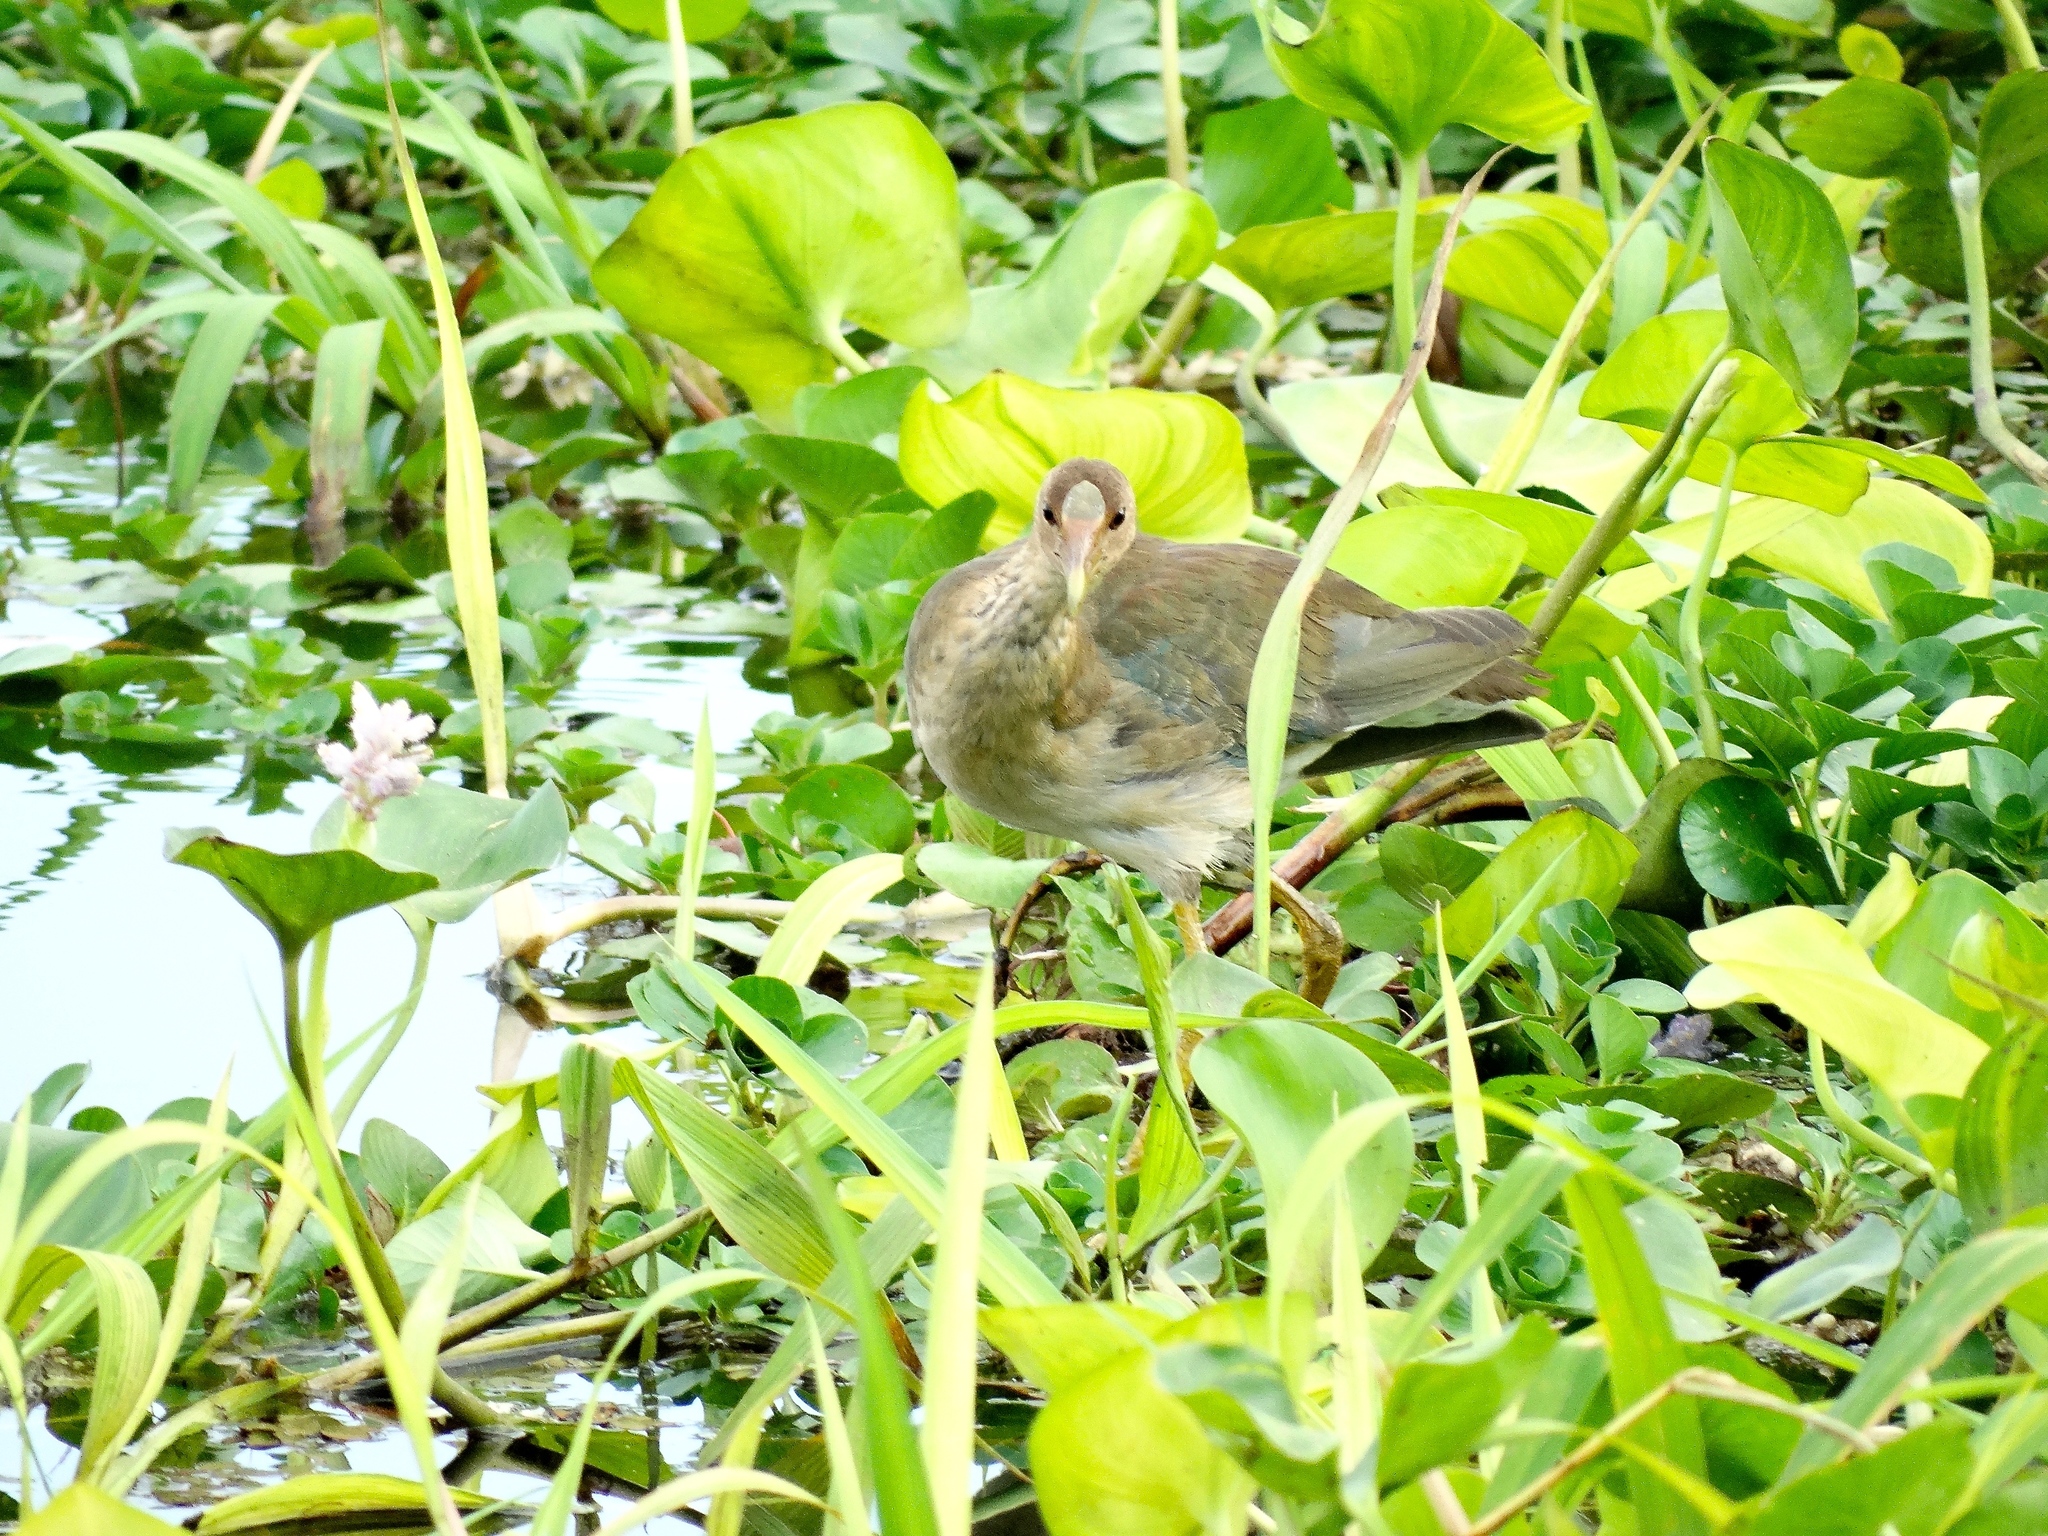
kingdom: Animalia
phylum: Chordata
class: Aves
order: Gruiformes
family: Rallidae
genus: Porphyrio
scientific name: Porphyrio martinica
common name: Purple gallinule
